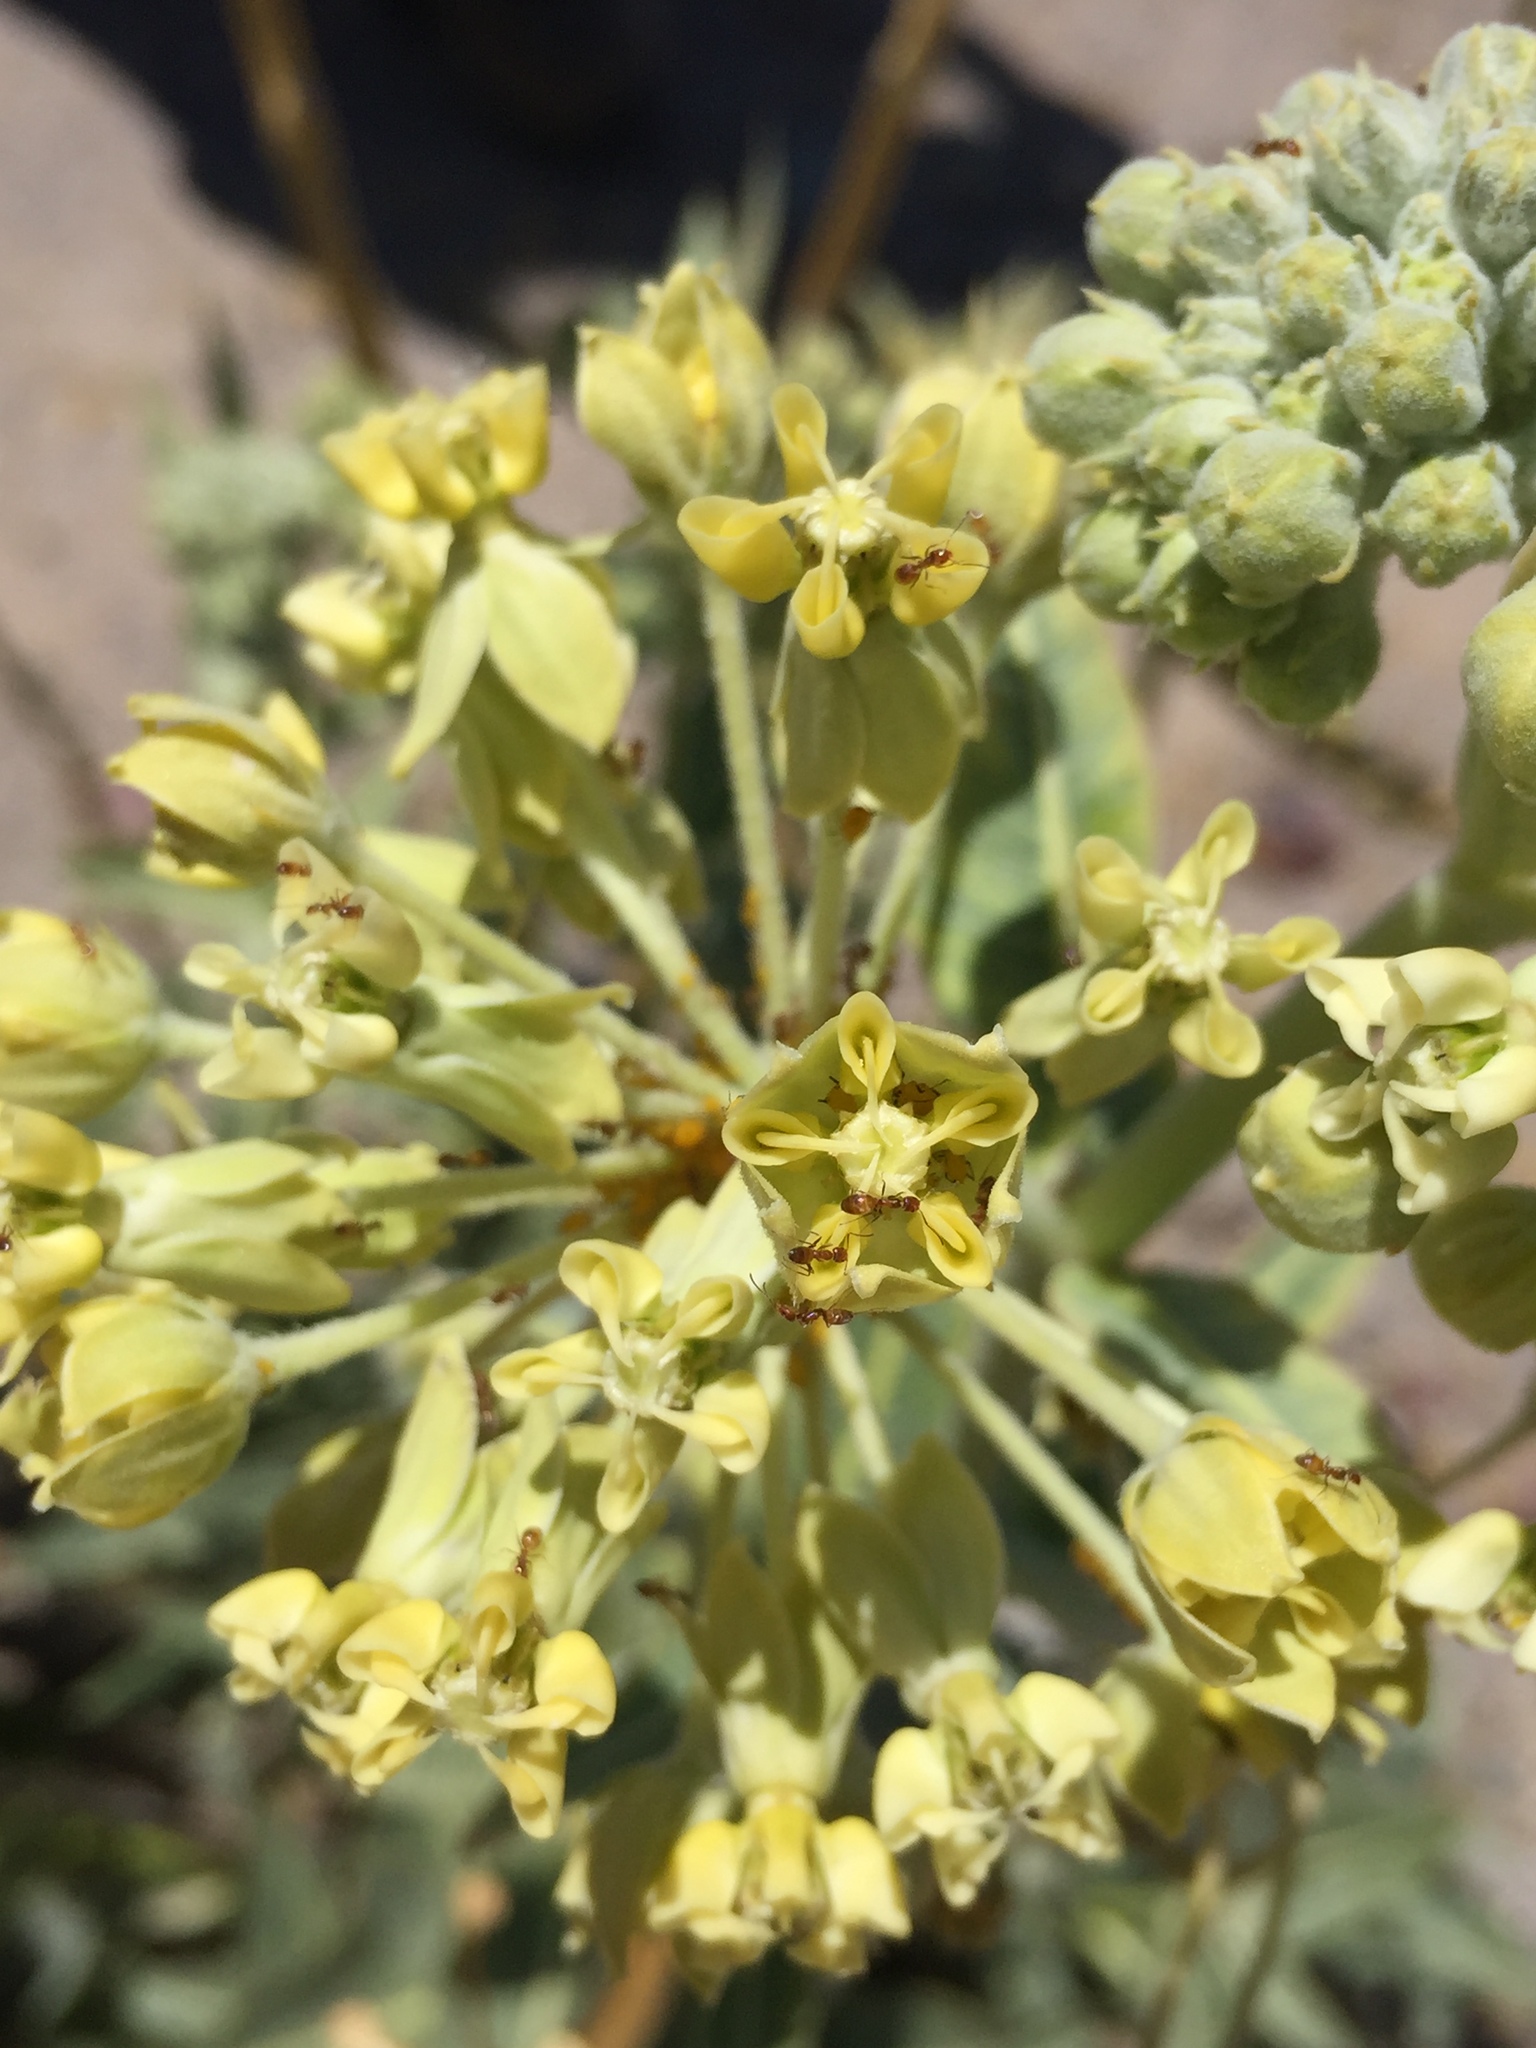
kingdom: Plantae
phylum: Tracheophyta
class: Magnoliopsida
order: Gentianales
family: Apocynaceae
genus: Asclepias
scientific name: Asclepias erosa
